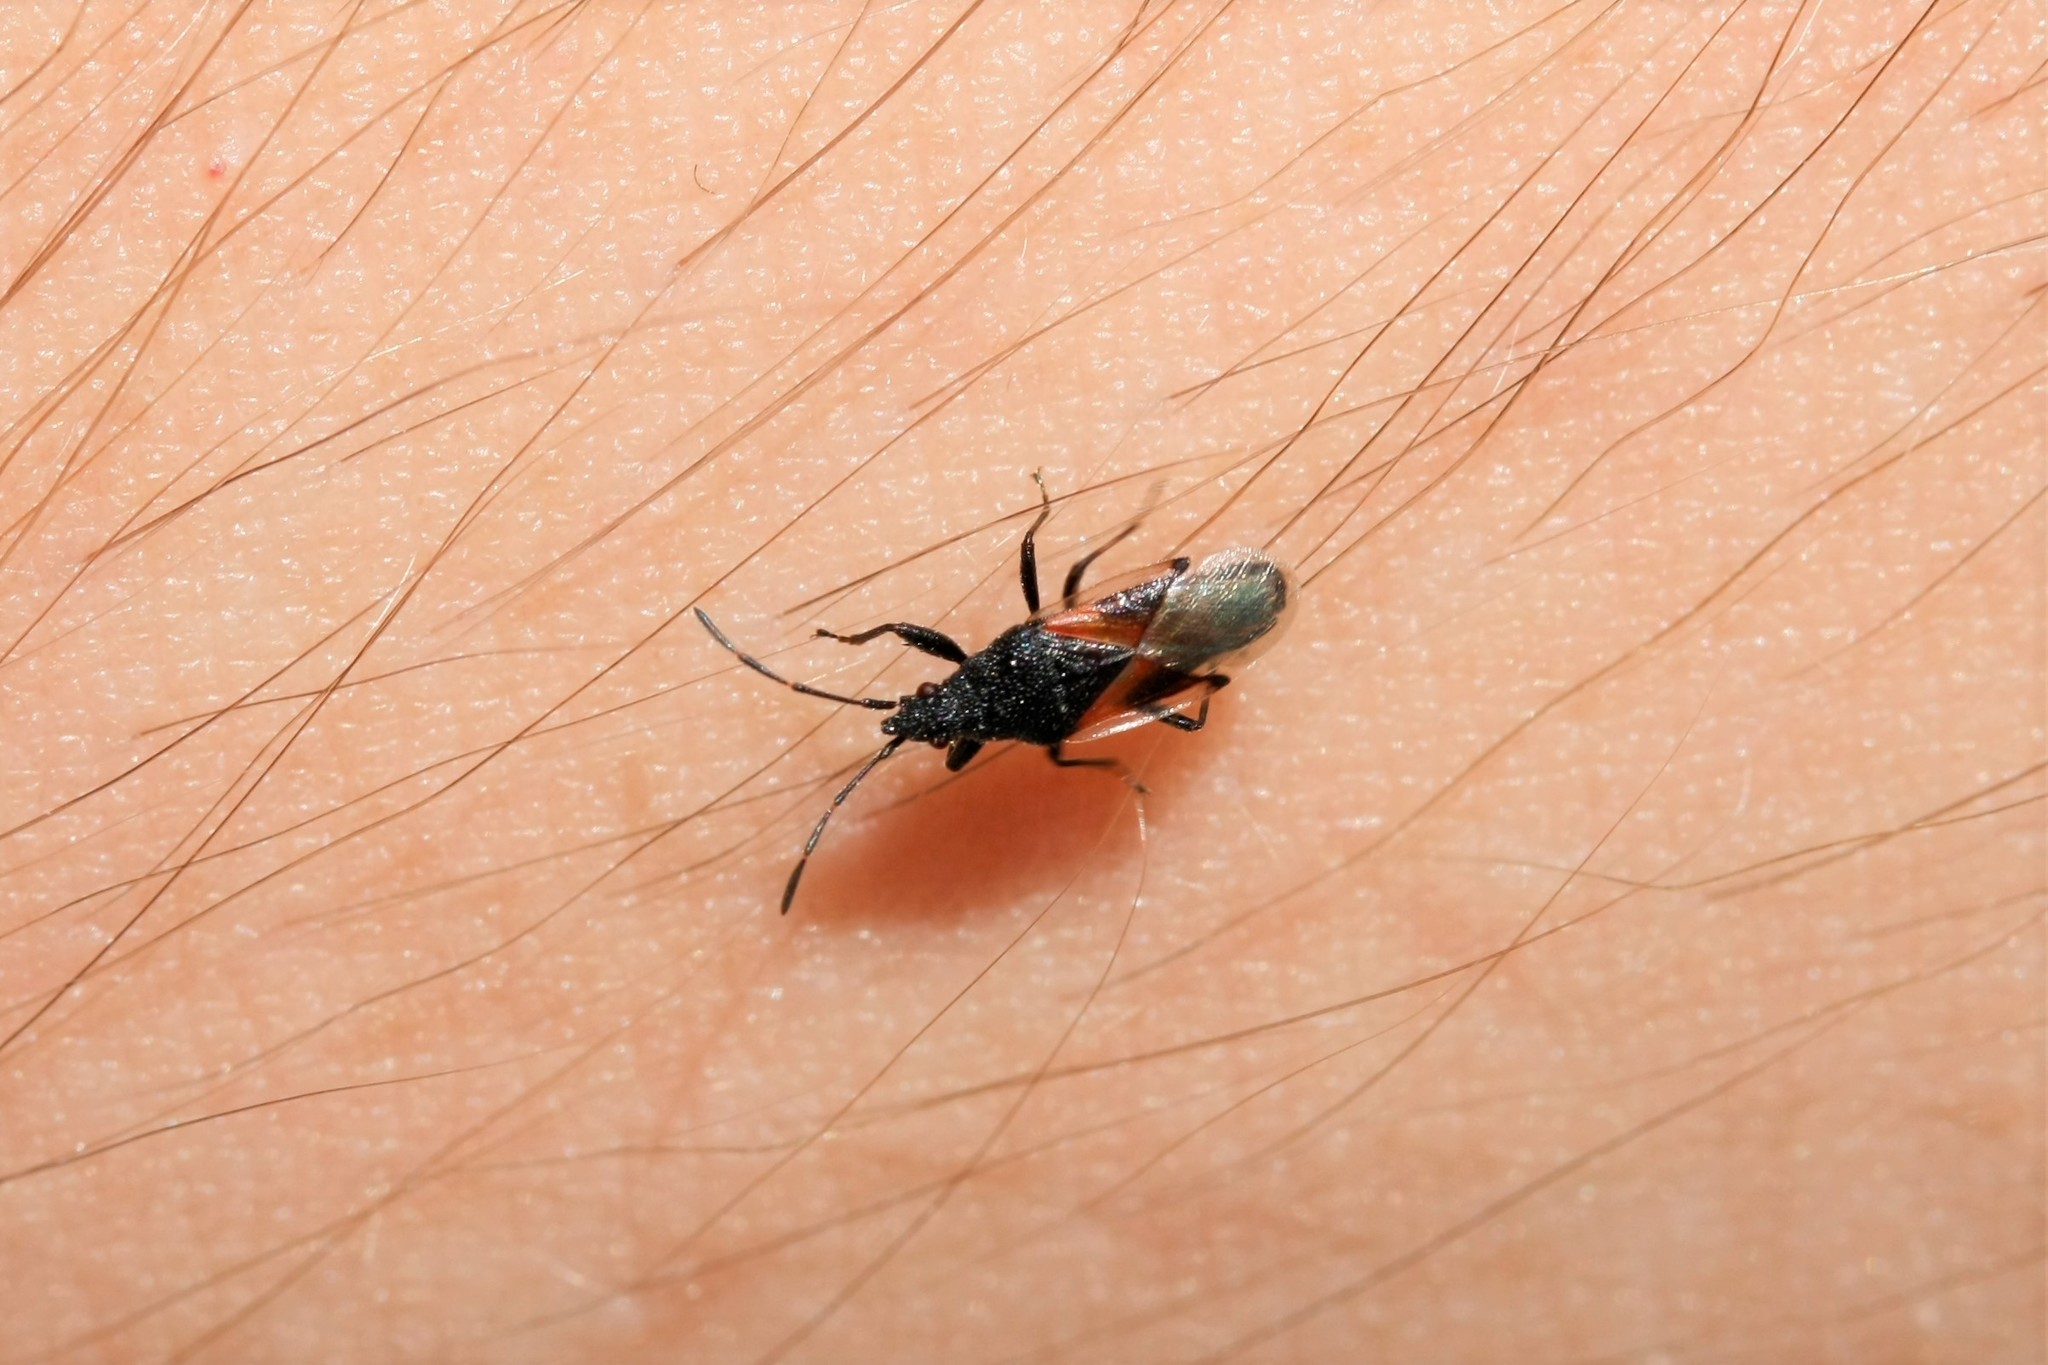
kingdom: Animalia
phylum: Arthropoda
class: Insecta
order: Hemiptera
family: Oxycarenidae
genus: Oxycarenus
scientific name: Oxycarenus lavaterae
